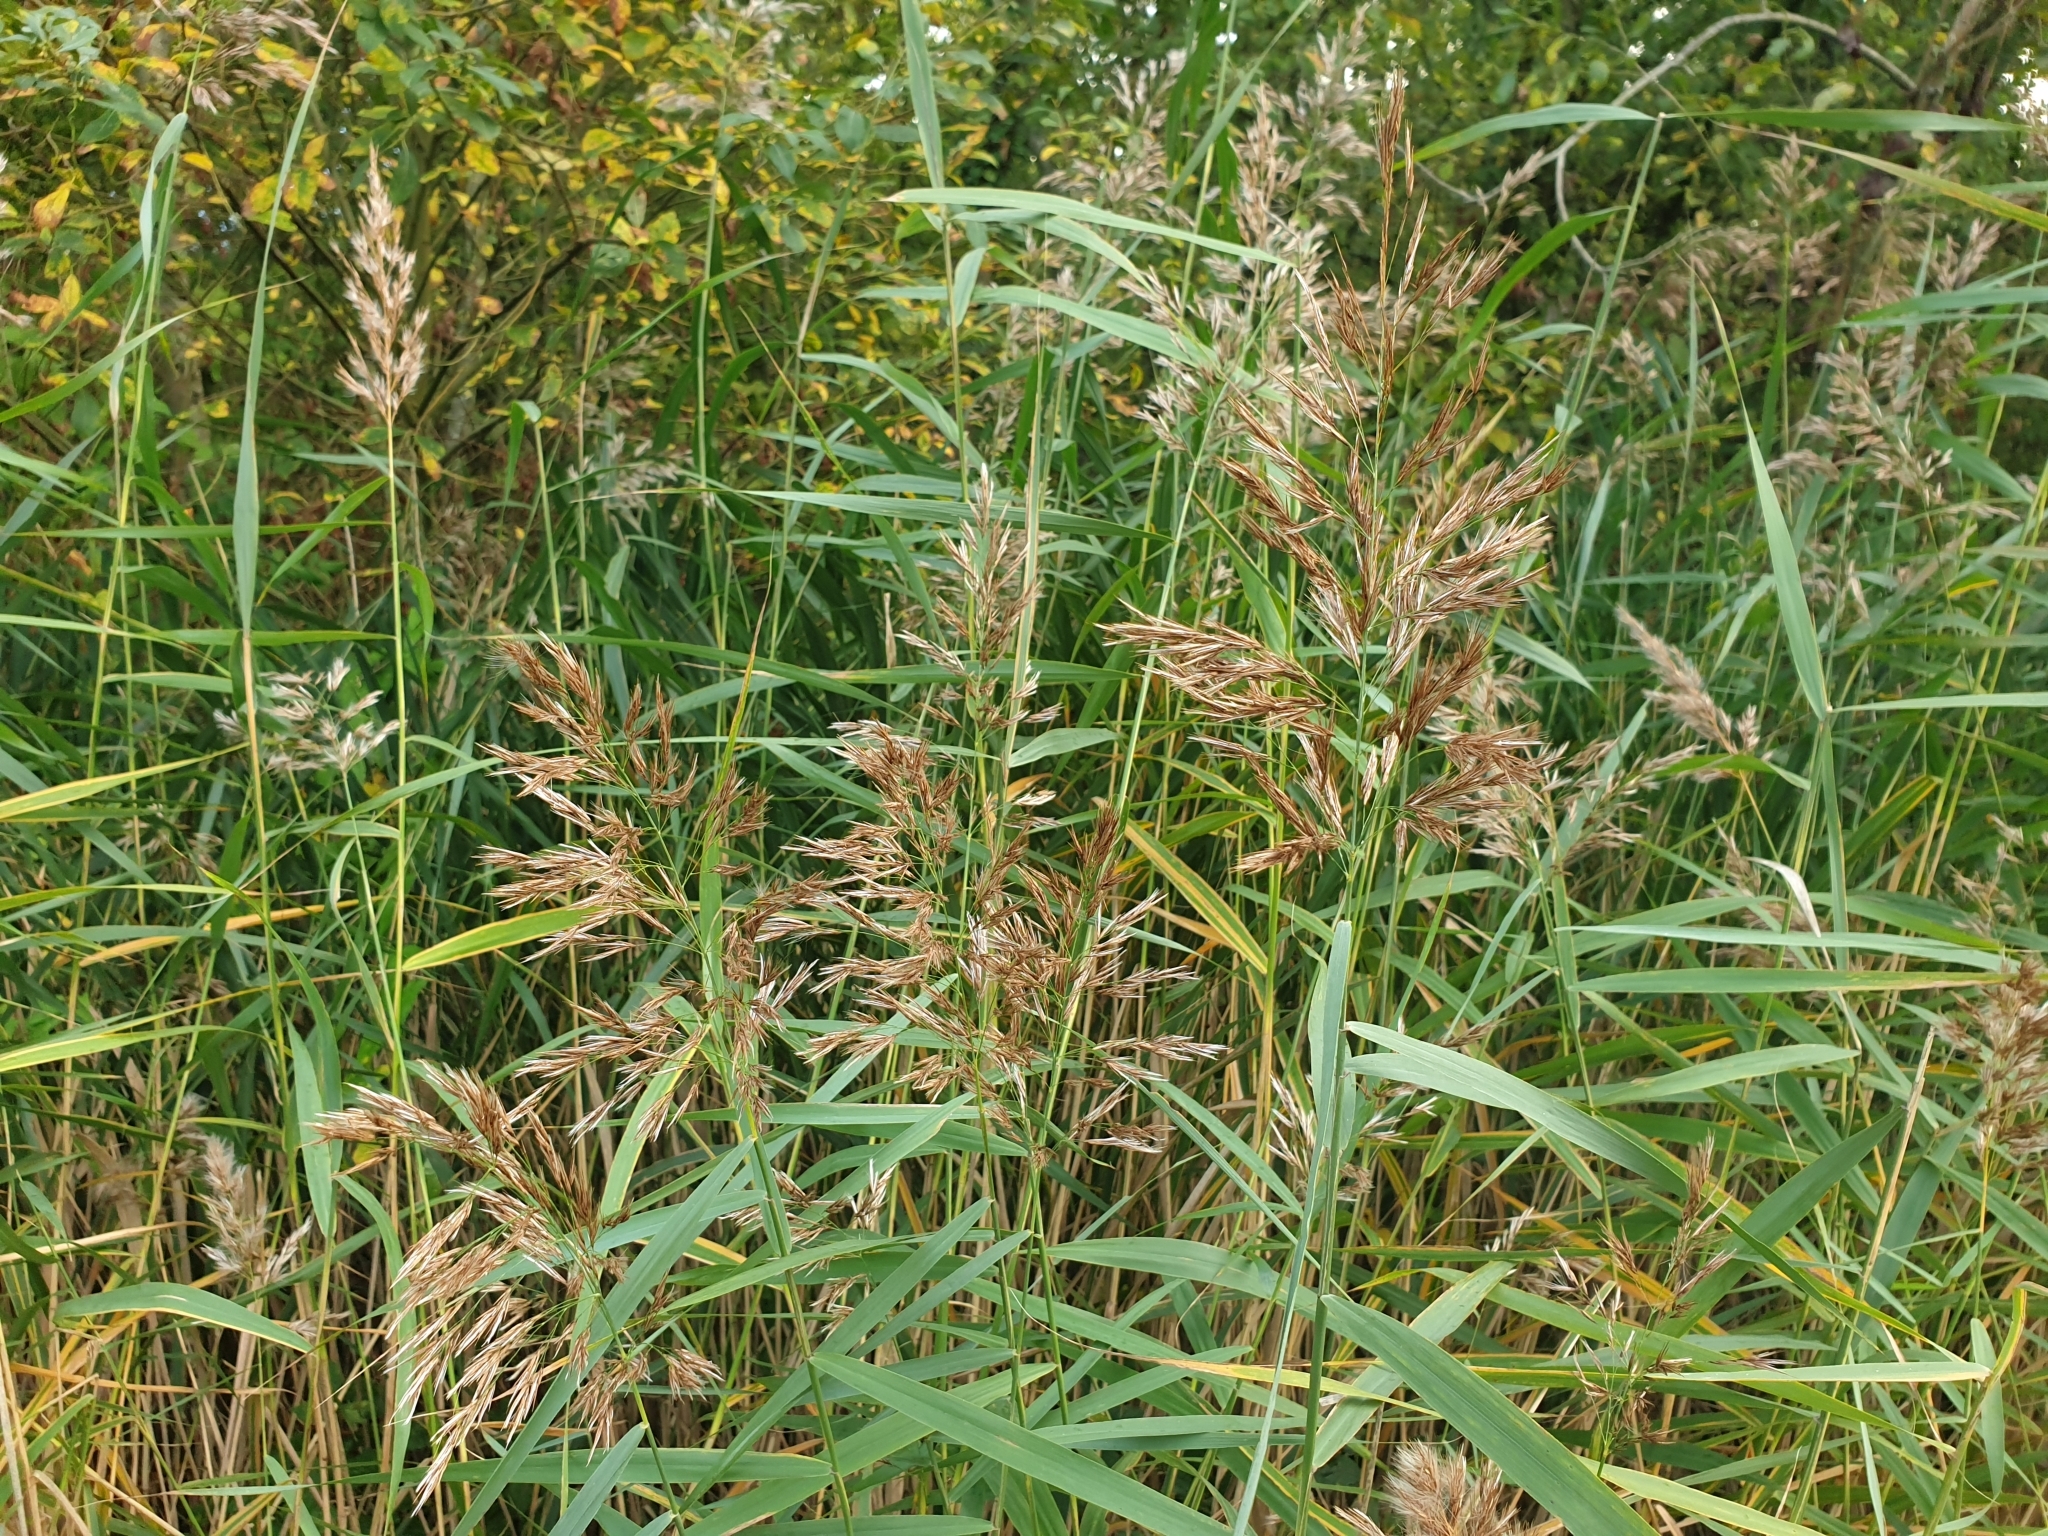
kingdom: Plantae
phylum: Tracheophyta
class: Liliopsida
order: Poales
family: Poaceae
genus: Phragmites
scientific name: Phragmites australis
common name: Common reed
